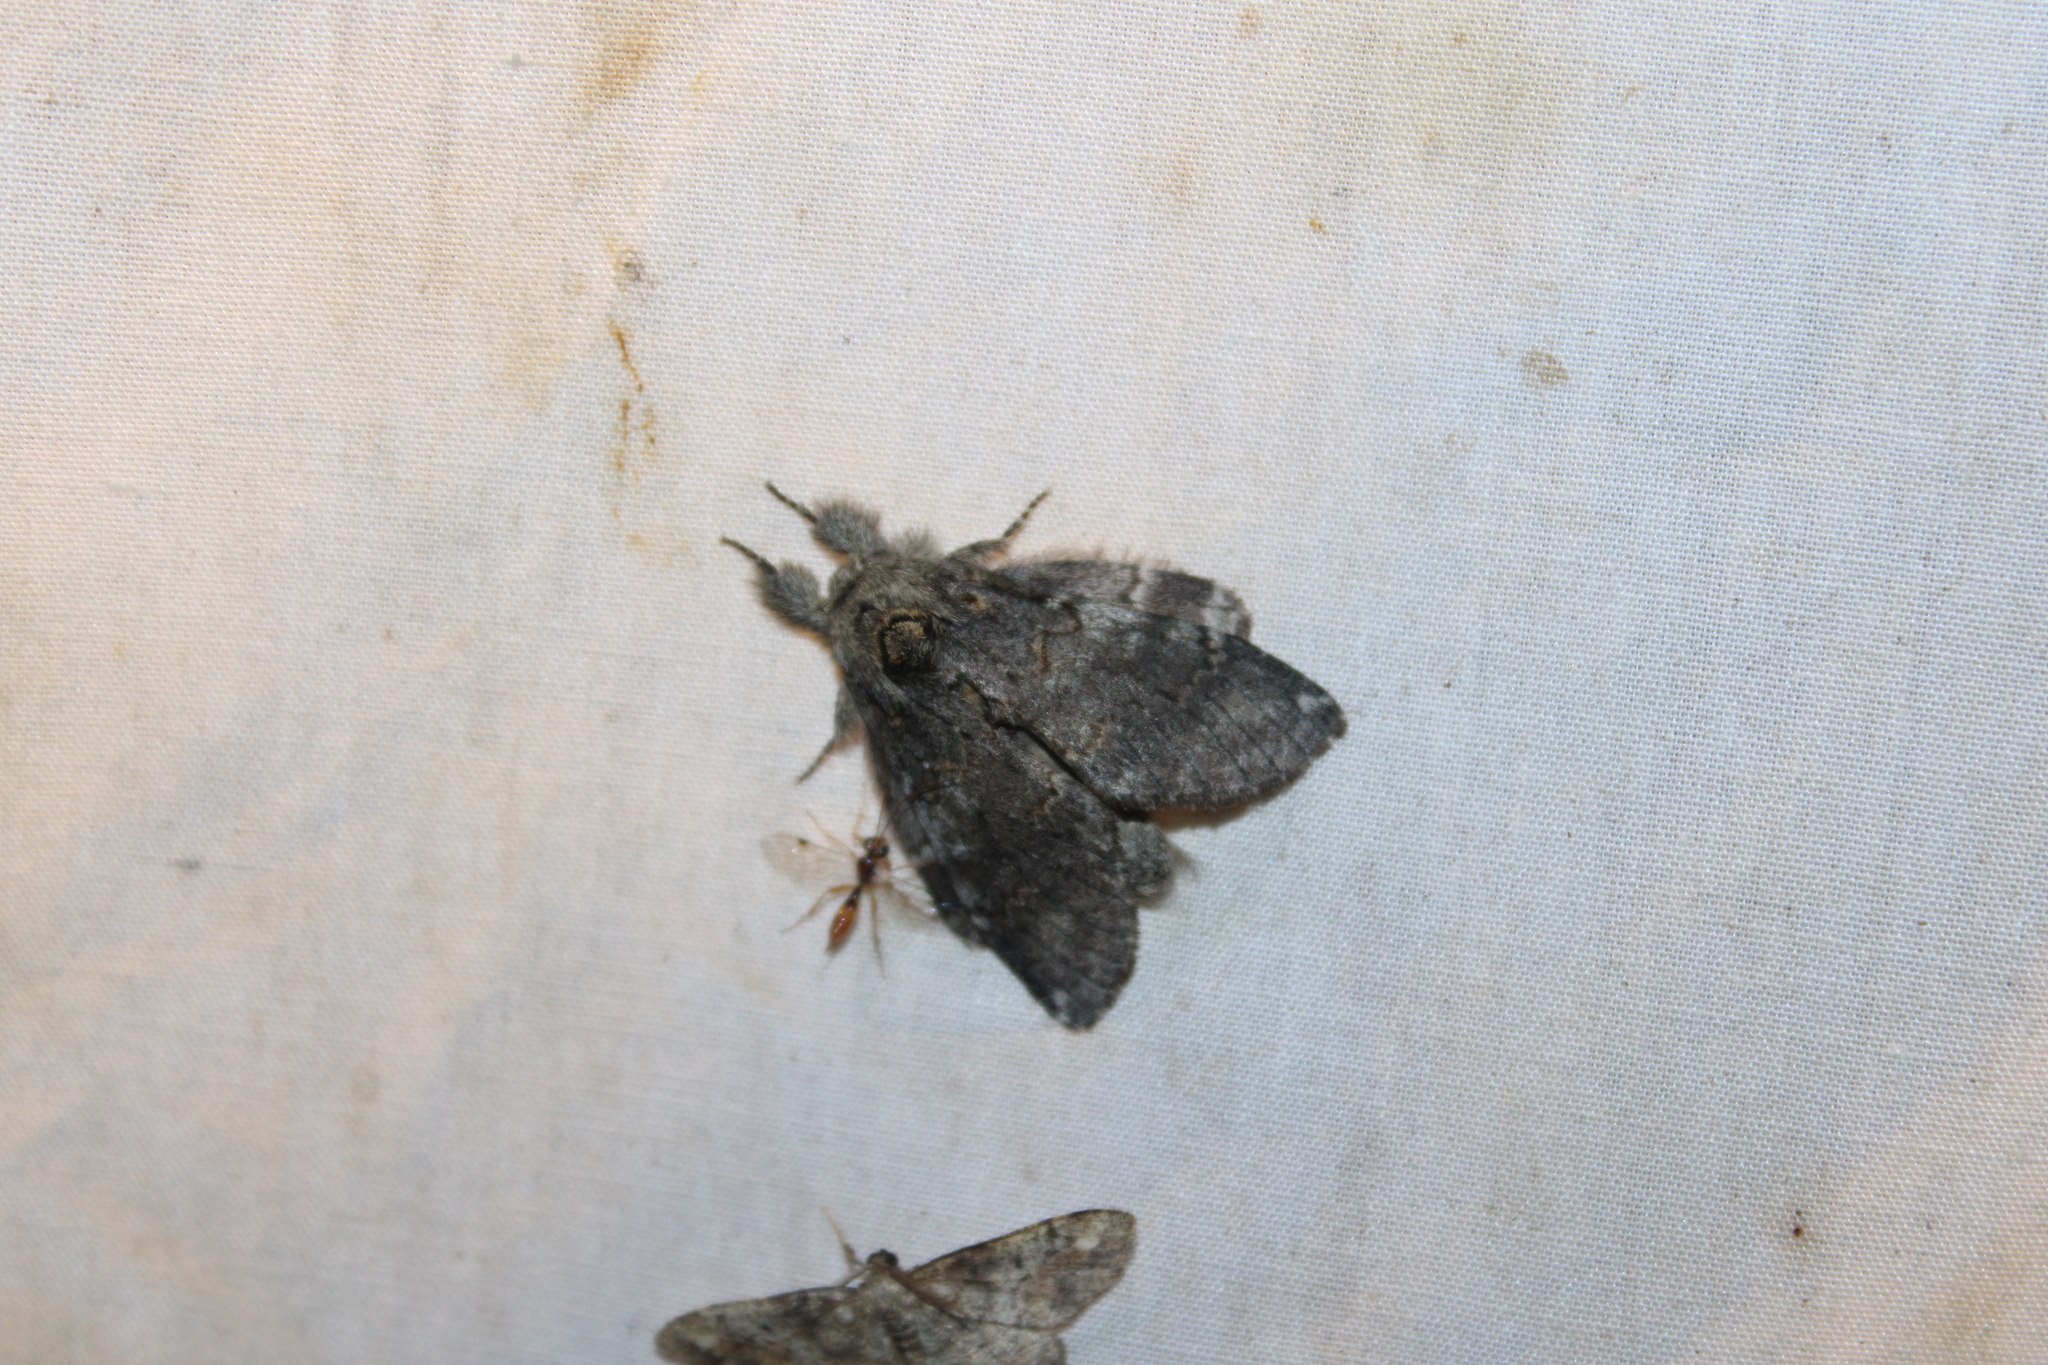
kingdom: Animalia
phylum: Arthropoda
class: Insecta
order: Lepidoptera
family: Notodontidae
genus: Peridea
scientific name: Peridea angulosa
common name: Angulose prominent
